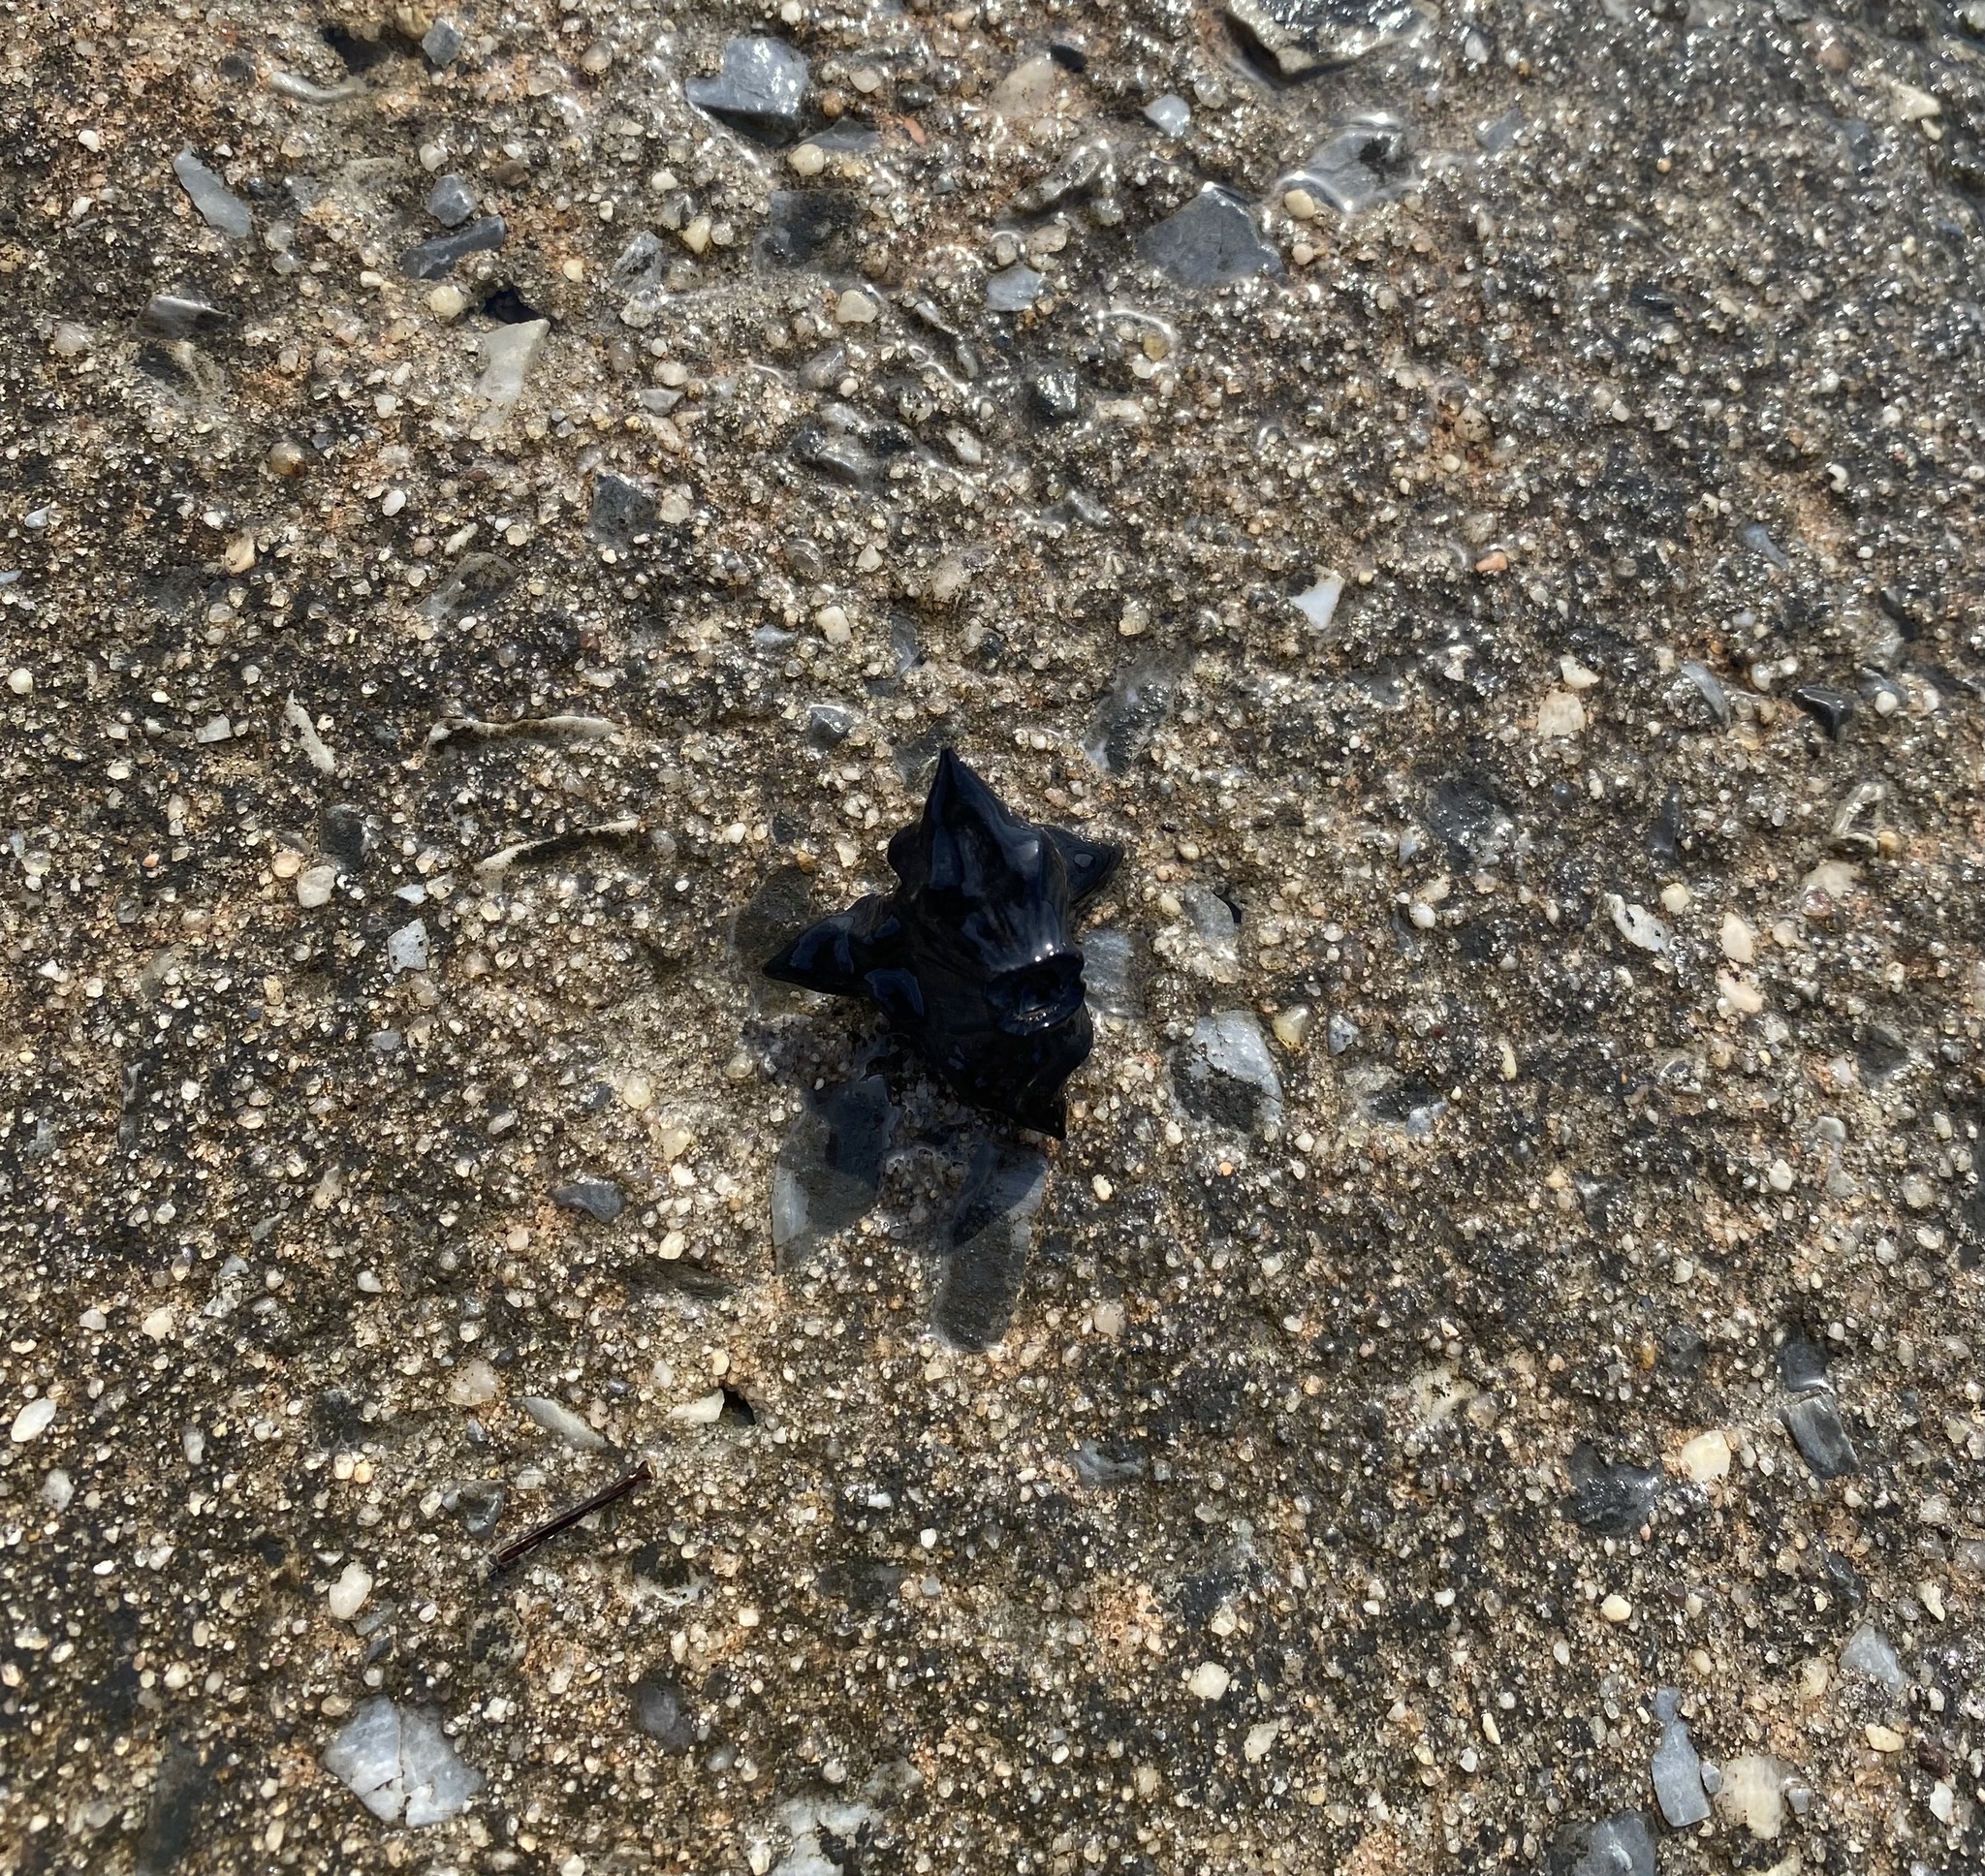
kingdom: Plantae
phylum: Tracheophyta
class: Magnoliopsida
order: Myrtales
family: Lythraceae
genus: Trapa
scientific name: Trapa natans
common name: Water chestnut
